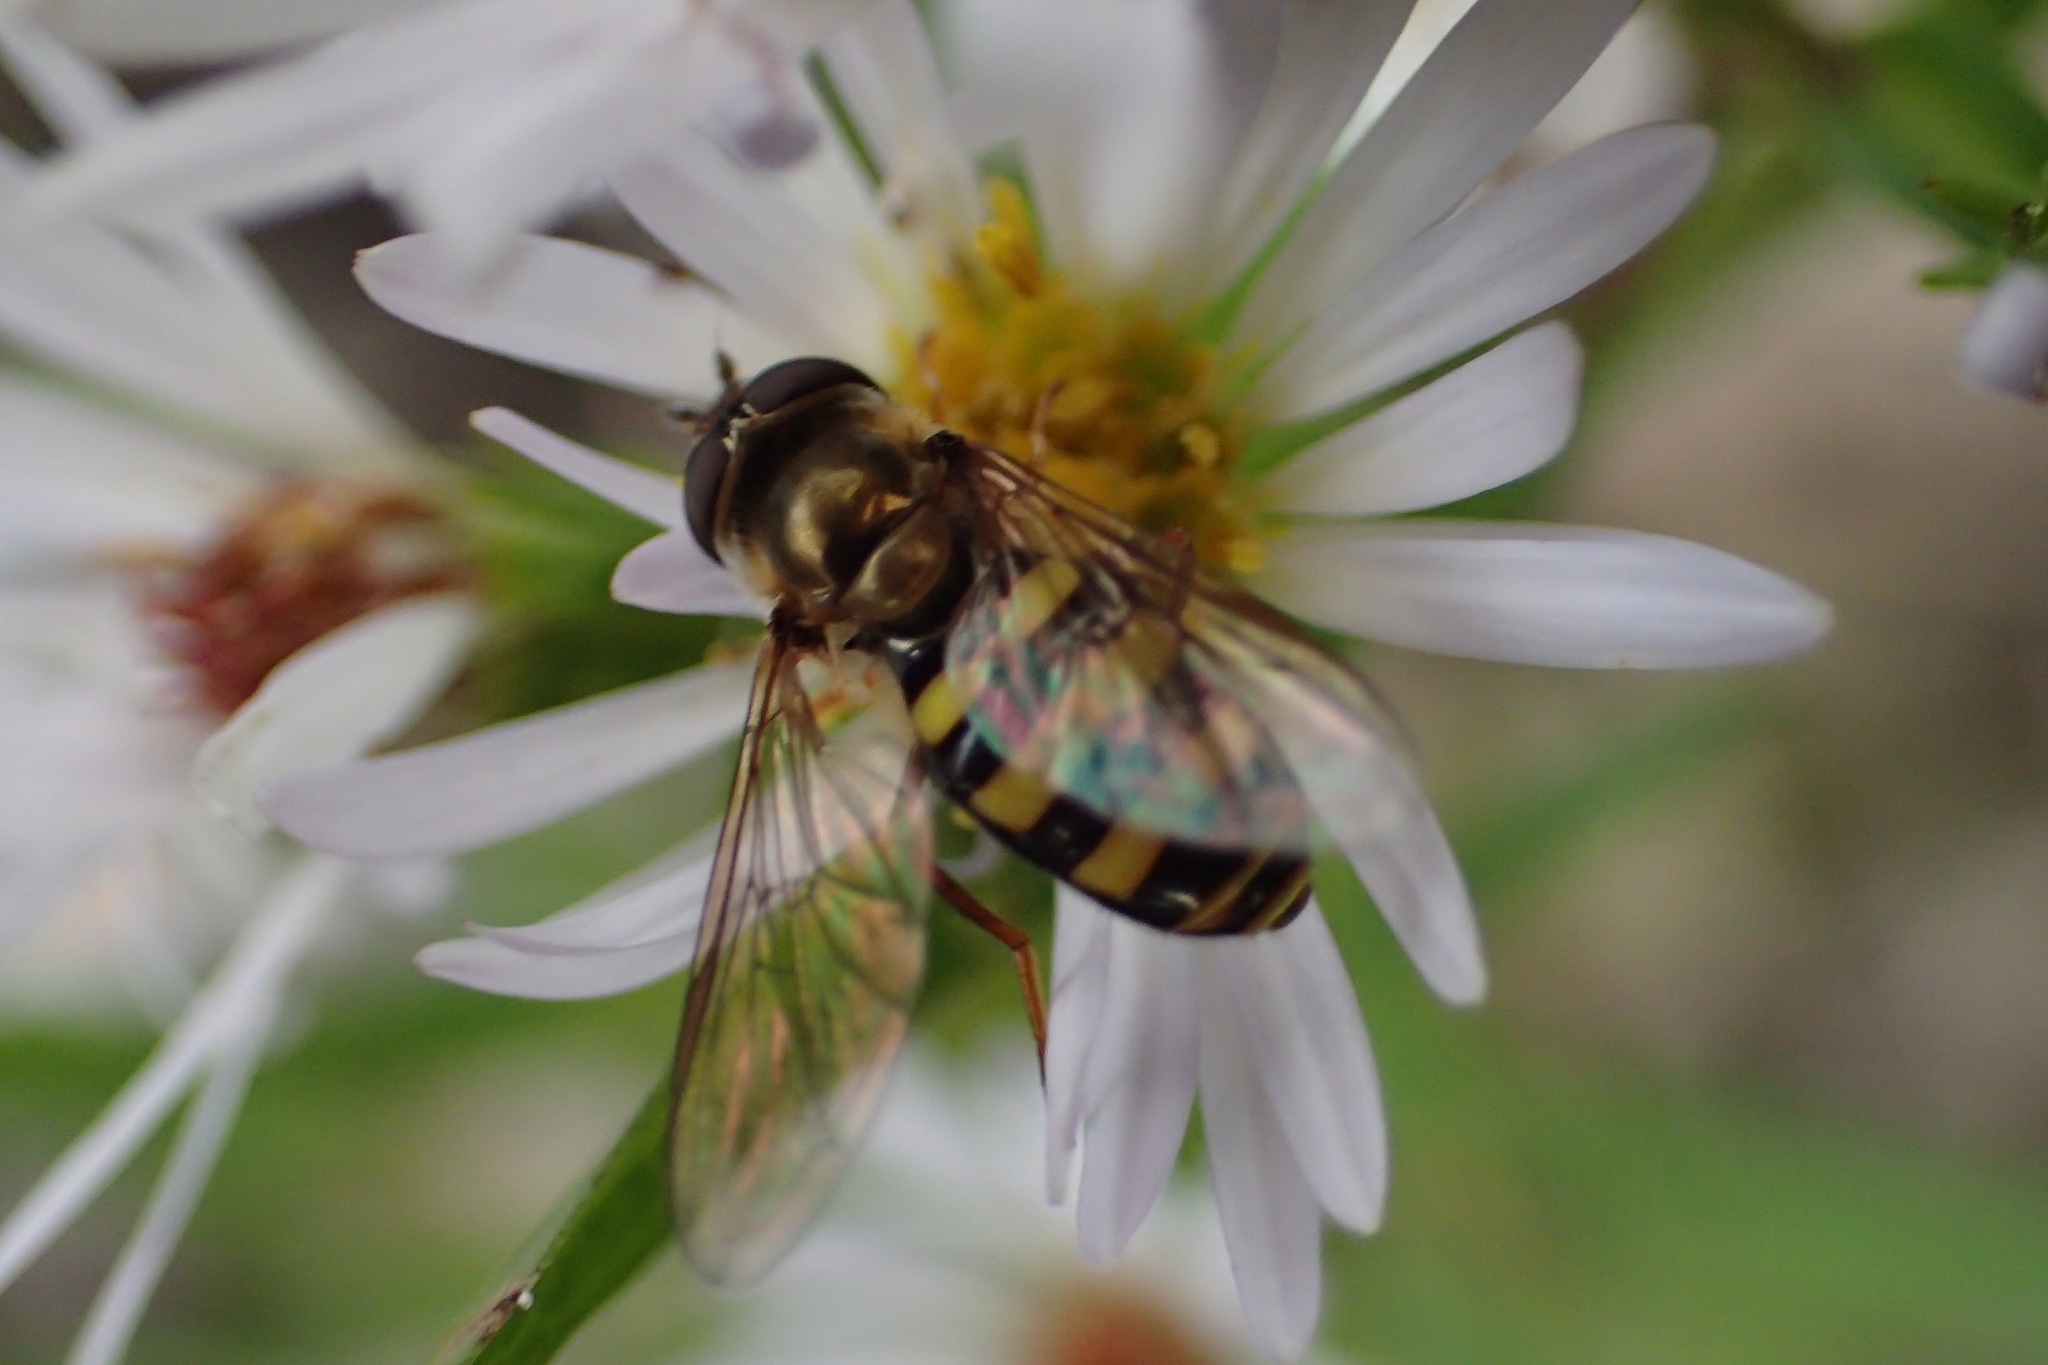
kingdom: Animalia
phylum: Arthropoda
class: Insecta
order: Diptera
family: Syrphidae
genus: Eupeodes
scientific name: Eupeodes
